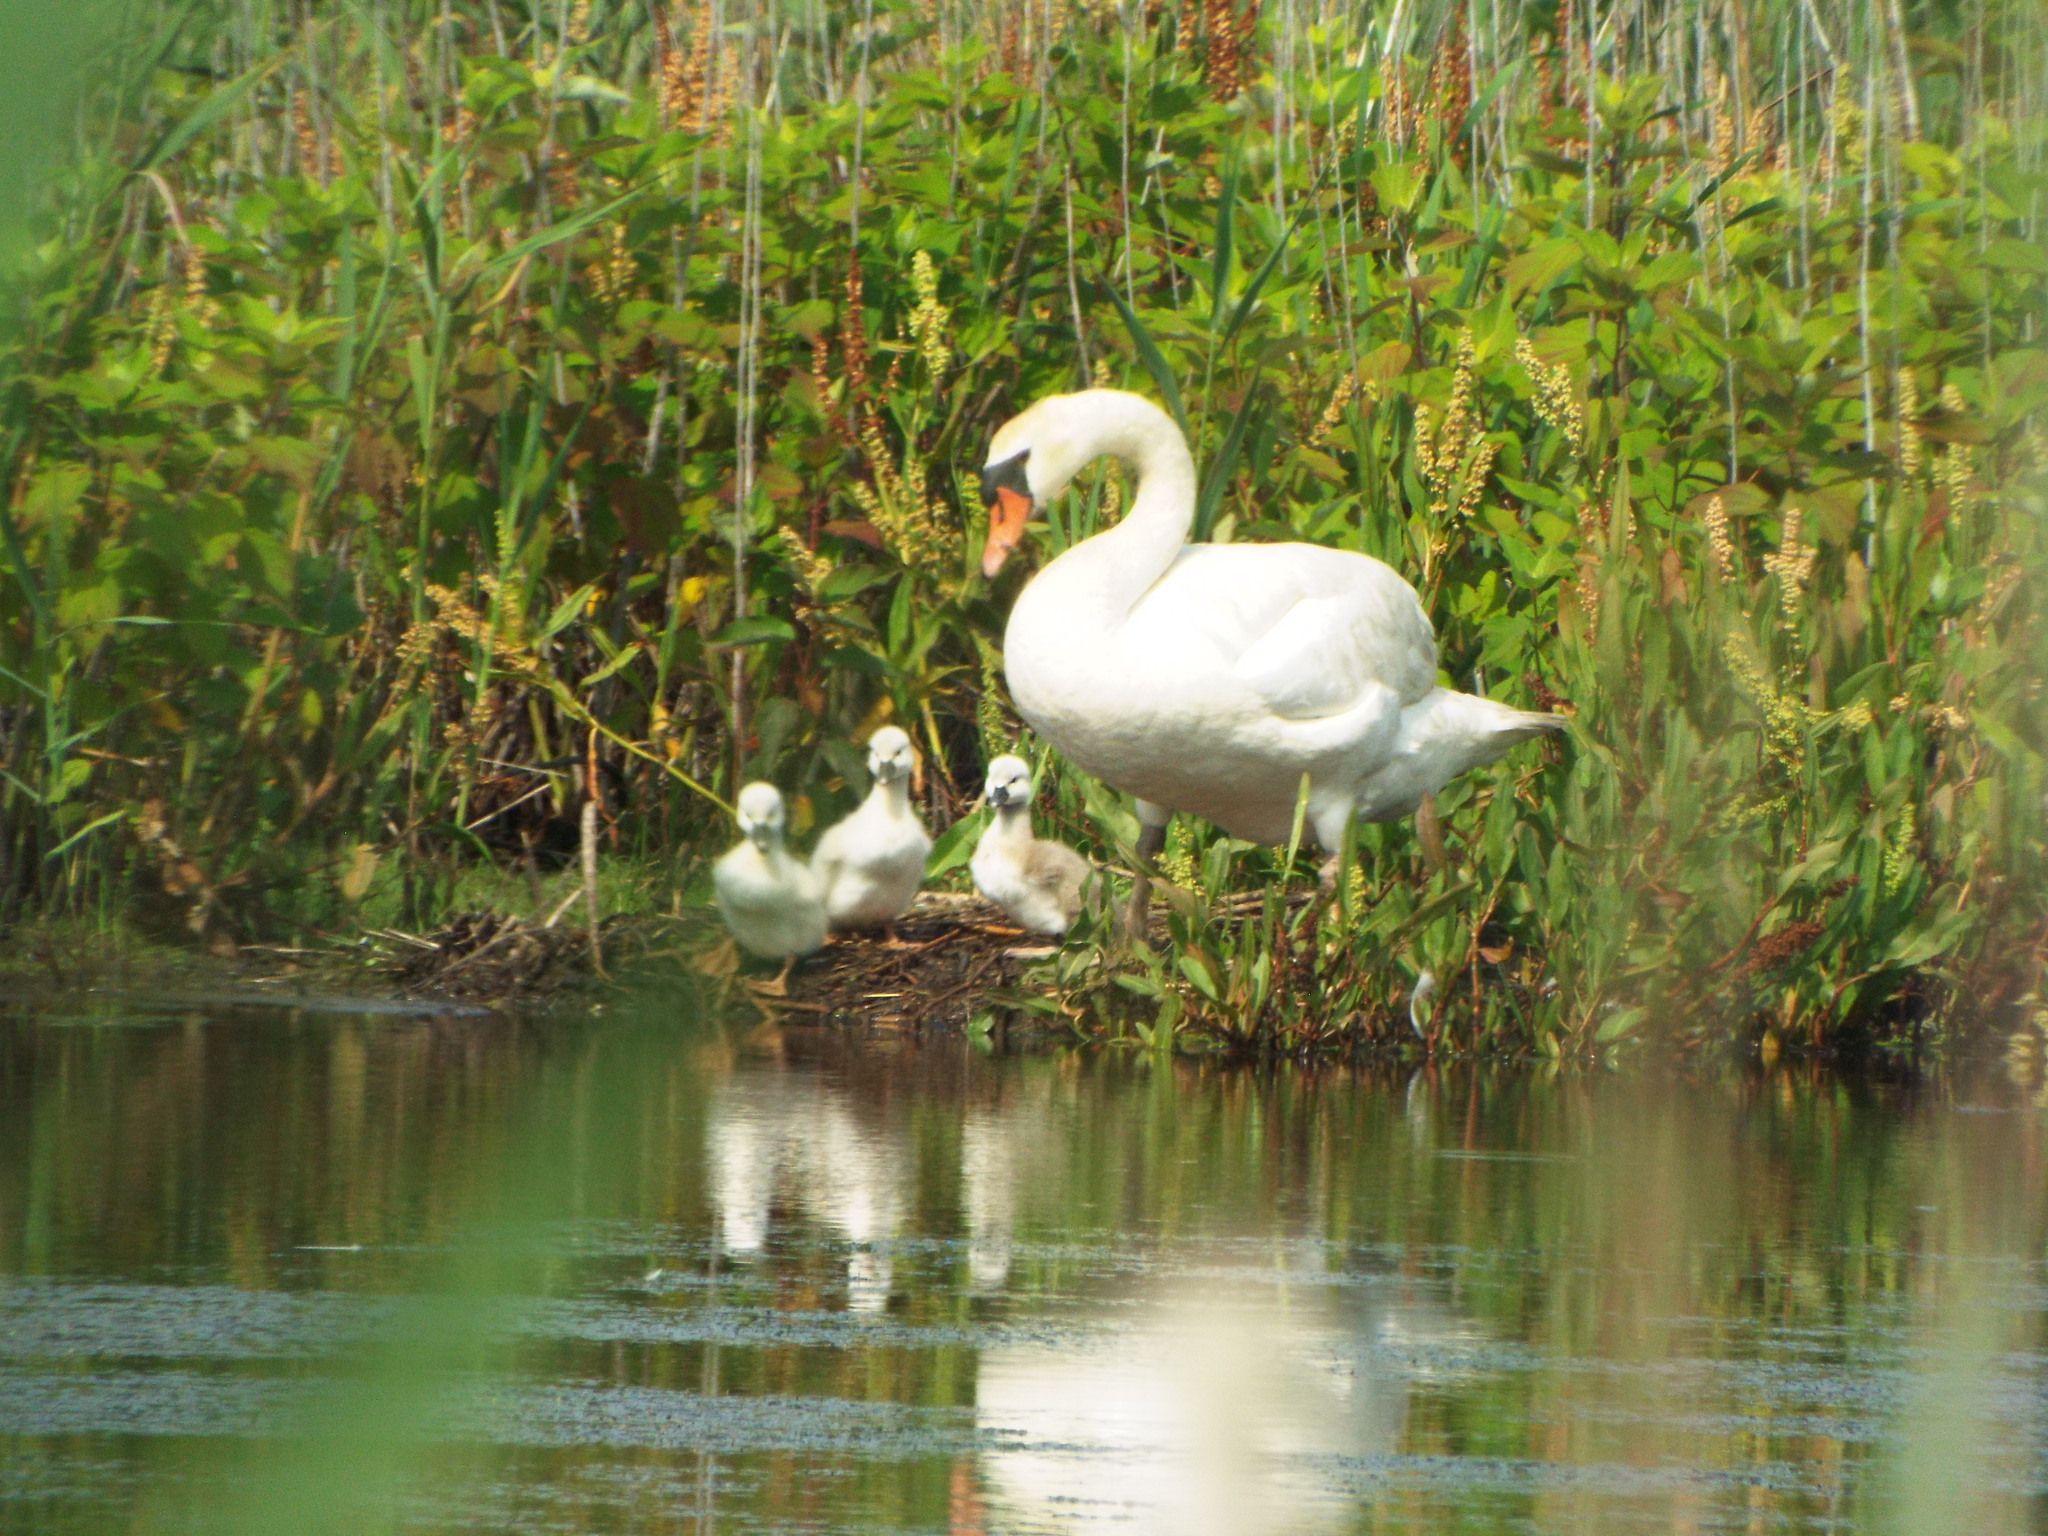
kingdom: Animalia
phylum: Chordata
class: Aves
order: Anseriformes
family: Anatidae
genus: Cygnus
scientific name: Cygnus olor
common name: Mute swan
